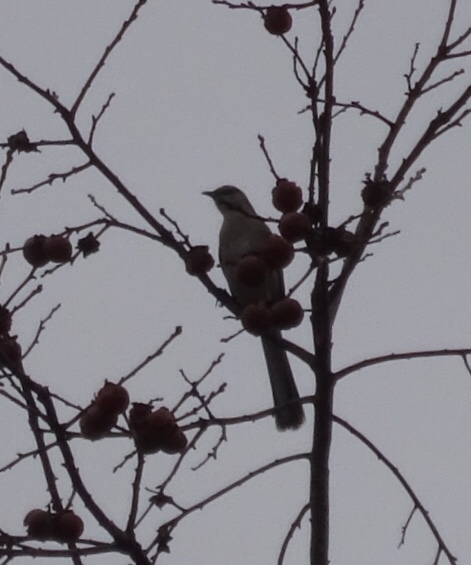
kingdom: Animalia
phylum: Chordata
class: Aves
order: Passeriformes
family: Mimidae
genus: Mimus
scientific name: Mimus polyglottos
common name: Northern mockingbird
